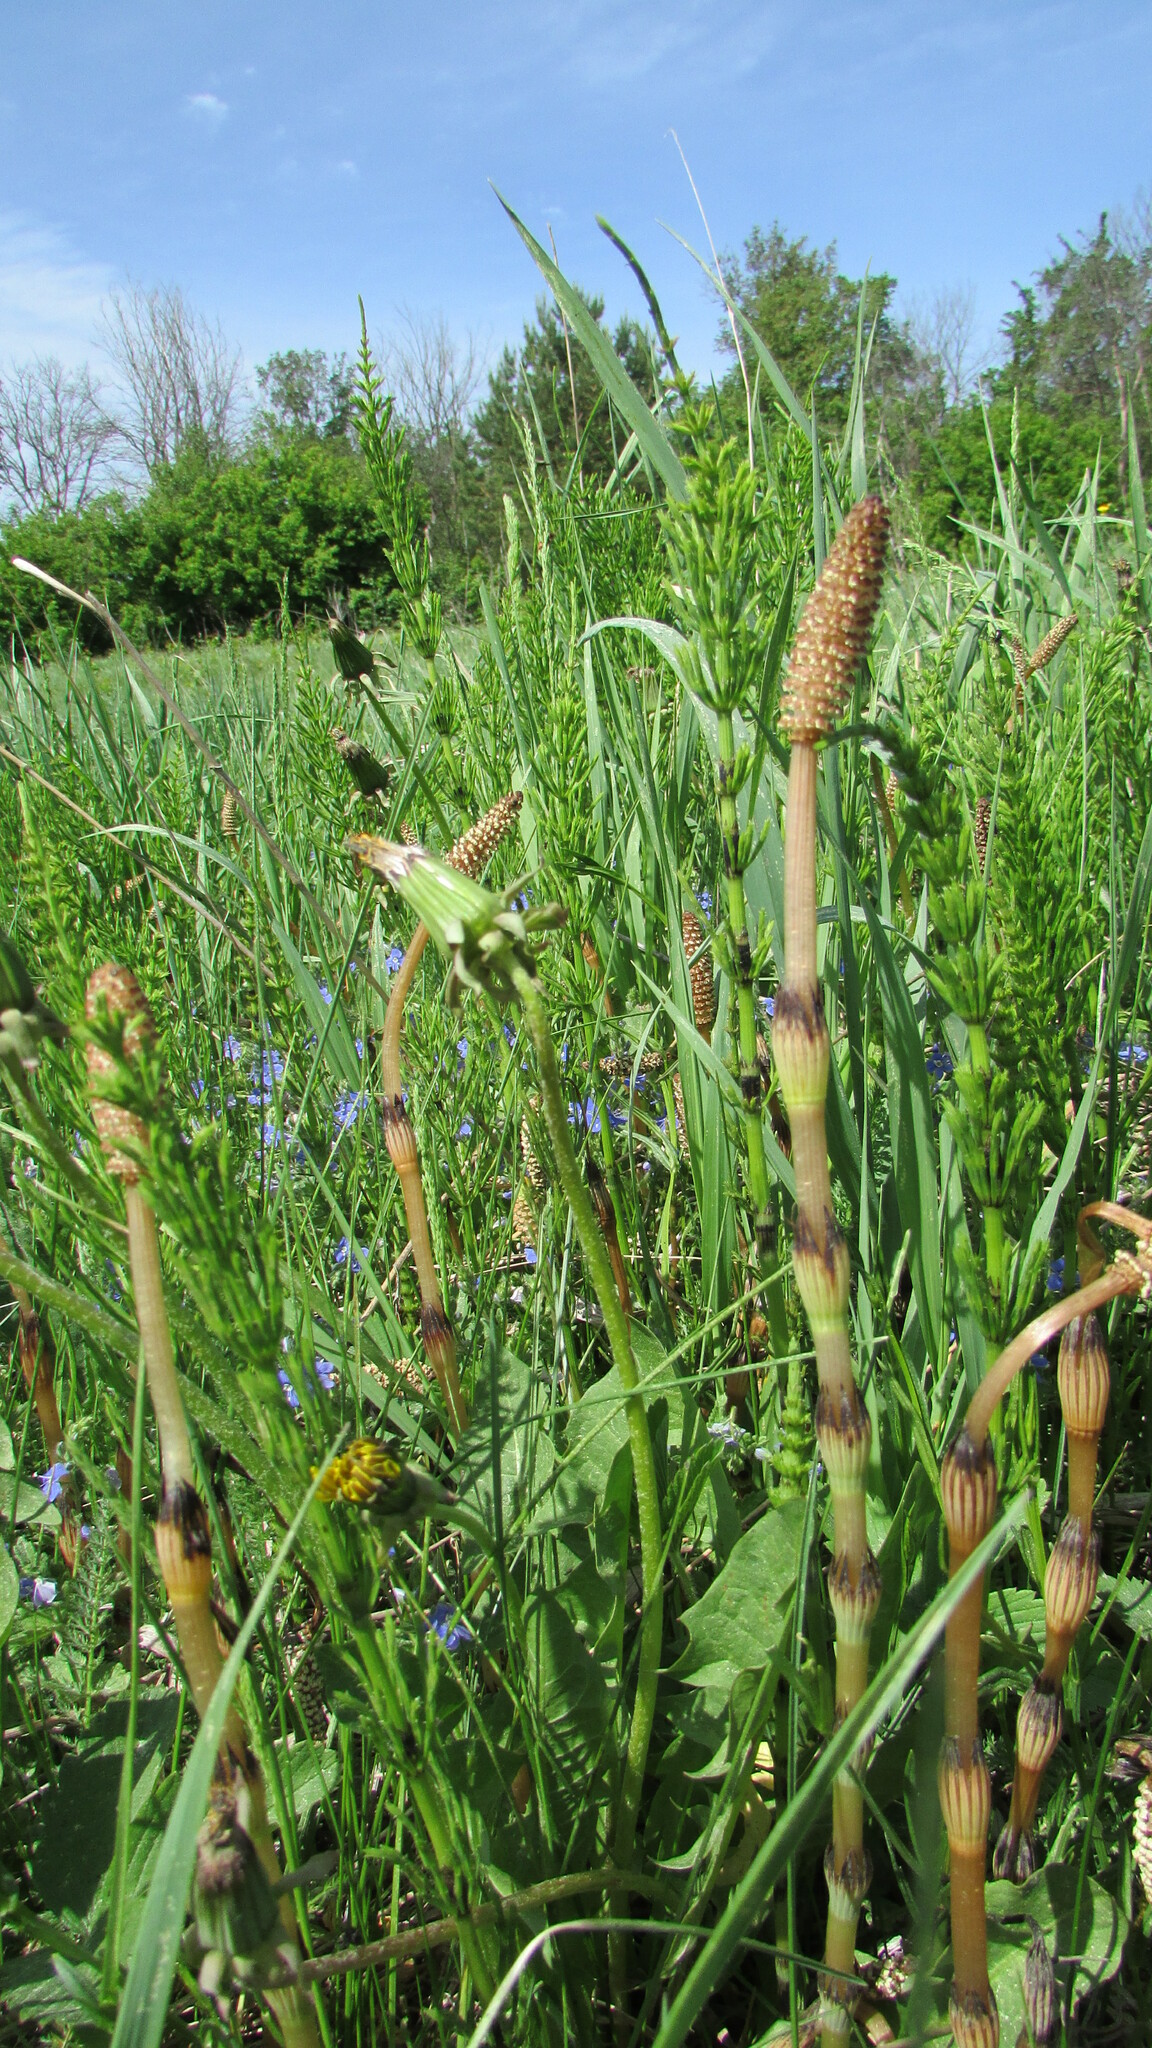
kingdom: Plantae
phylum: Tracheophyta
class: Polypodiopsida
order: Equisetales
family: Equisetaceae
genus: Equisetum
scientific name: Equisetum arvense
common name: Field horsetail
